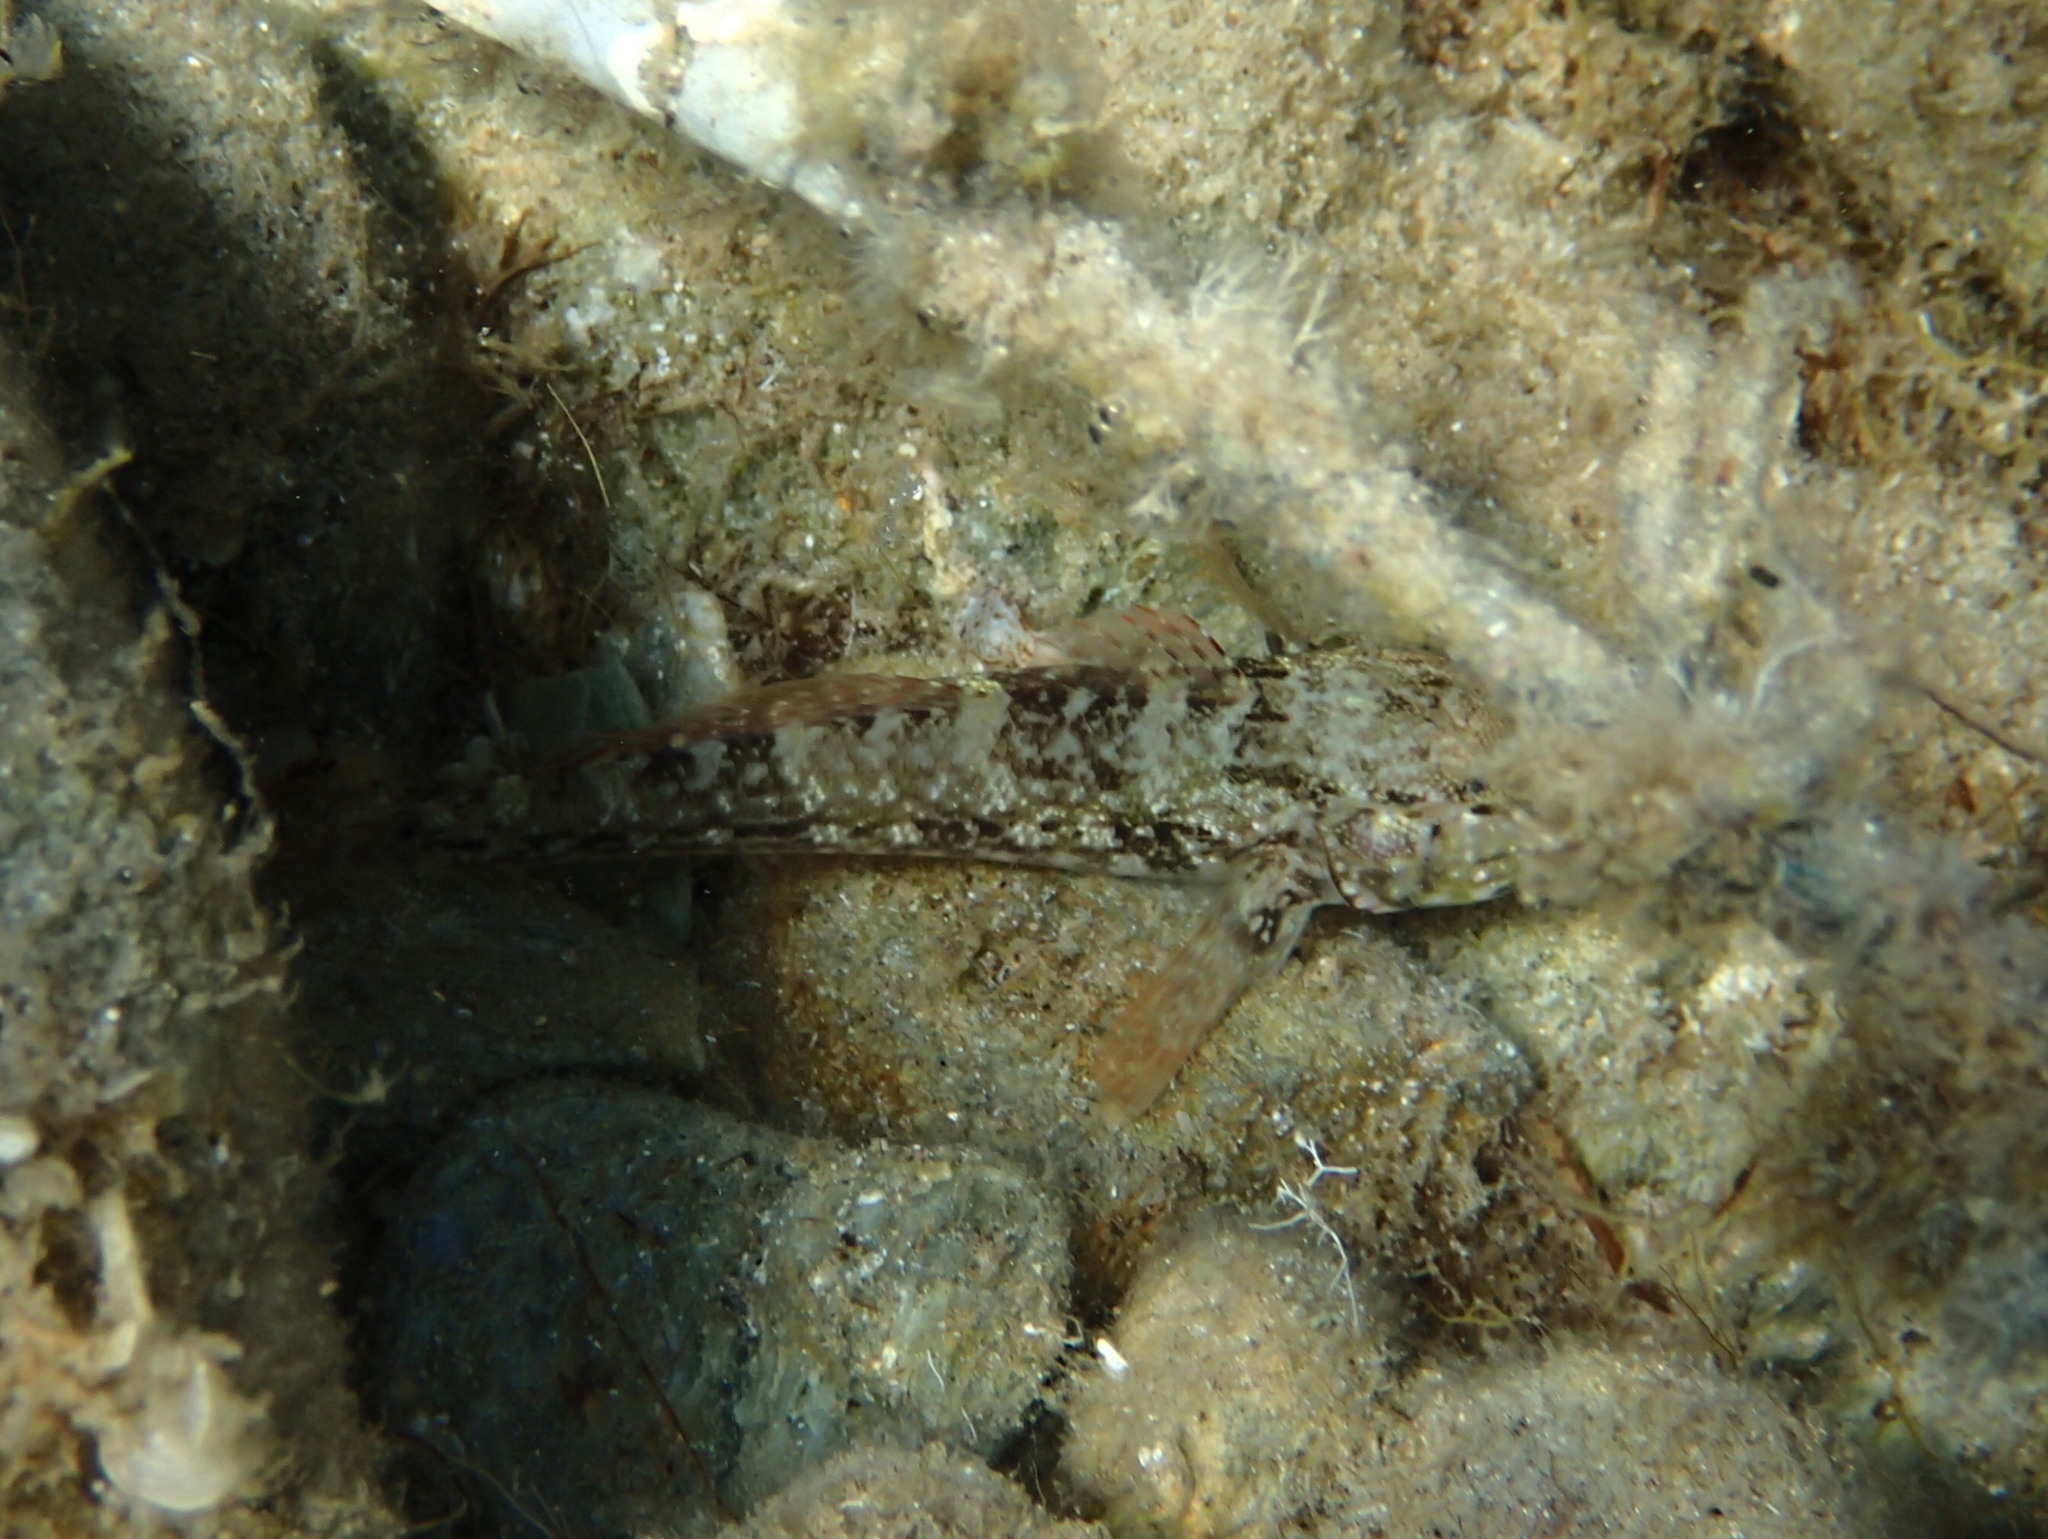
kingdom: Animalia
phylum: Chordata
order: Perciformes
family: Gobiidae
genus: Gobius
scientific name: Gobius paganellus
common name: Rock goby
